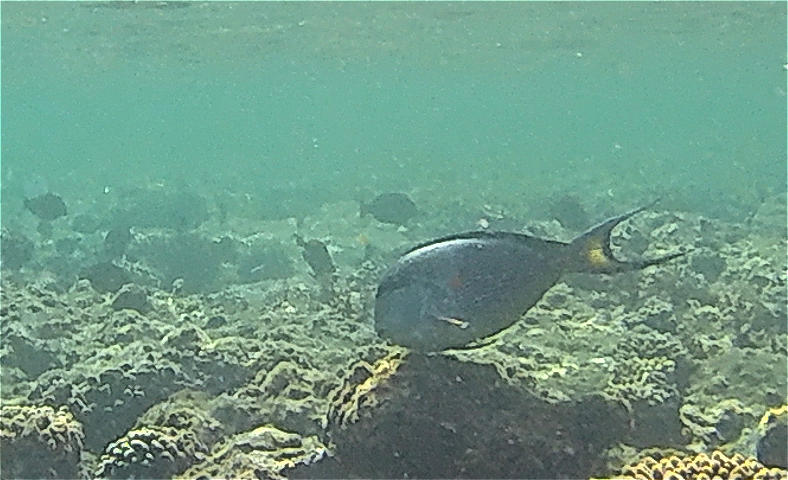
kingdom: Animalia
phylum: Chordata
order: Perciformes
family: Acanthuridae
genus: Acanthurus
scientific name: Acanthurus sohal
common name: Red sea surgeonfish
